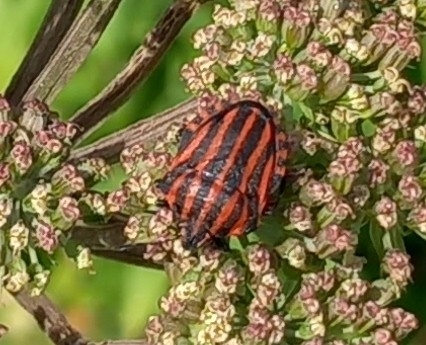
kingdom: Animalia
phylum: Arthropoda
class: Insecta
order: Hemiptera
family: Pentatomidae
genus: Graphosoma
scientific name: Graphosoma italicum
